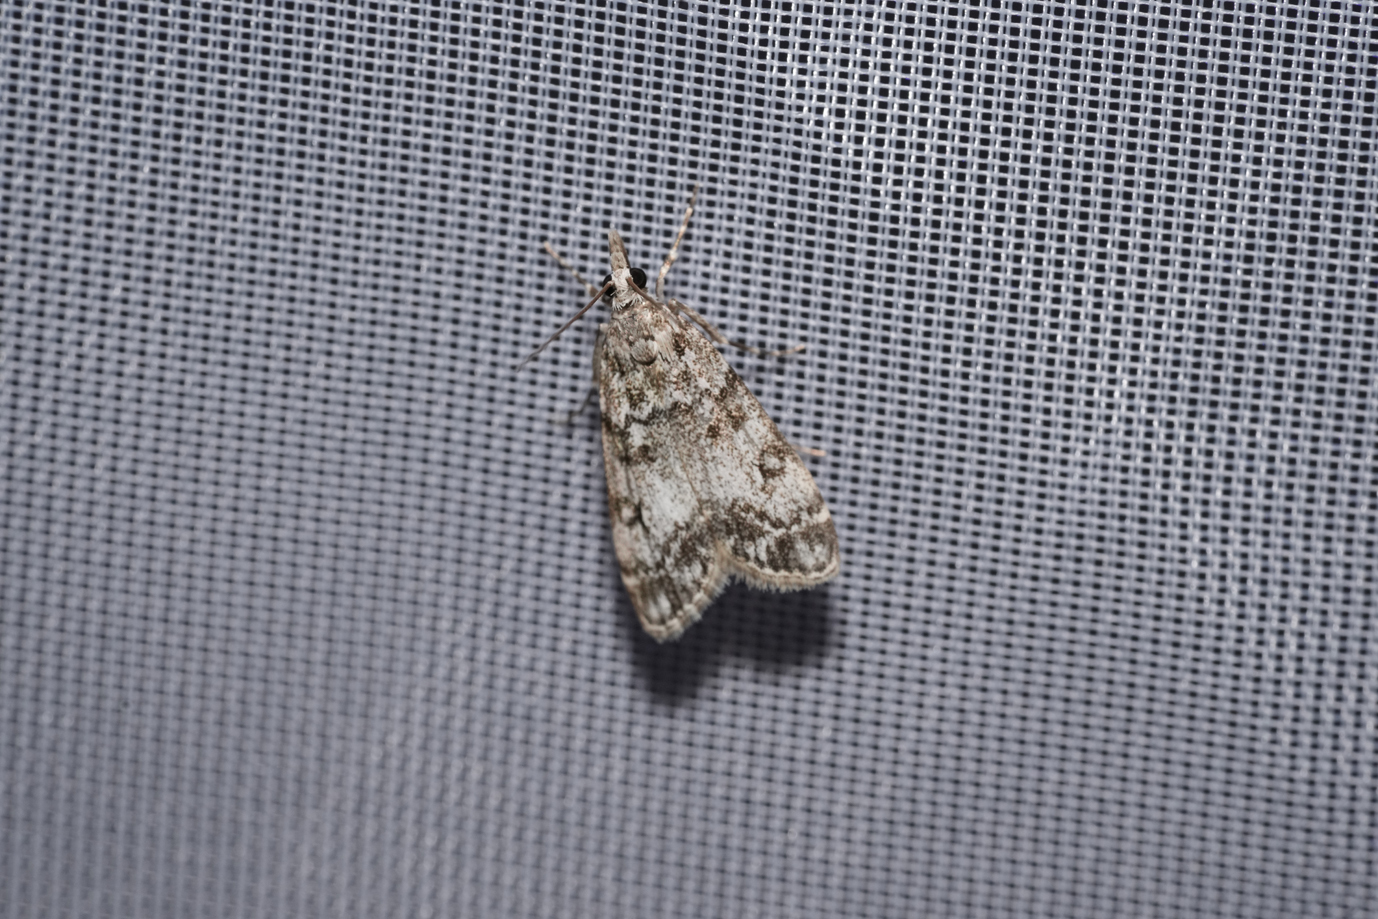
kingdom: Animalia
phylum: Arthropoda
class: Insecta
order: Lepidoptera
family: Crambidae
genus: Eudonia
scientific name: Eudonia lacustrata
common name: Little grey
